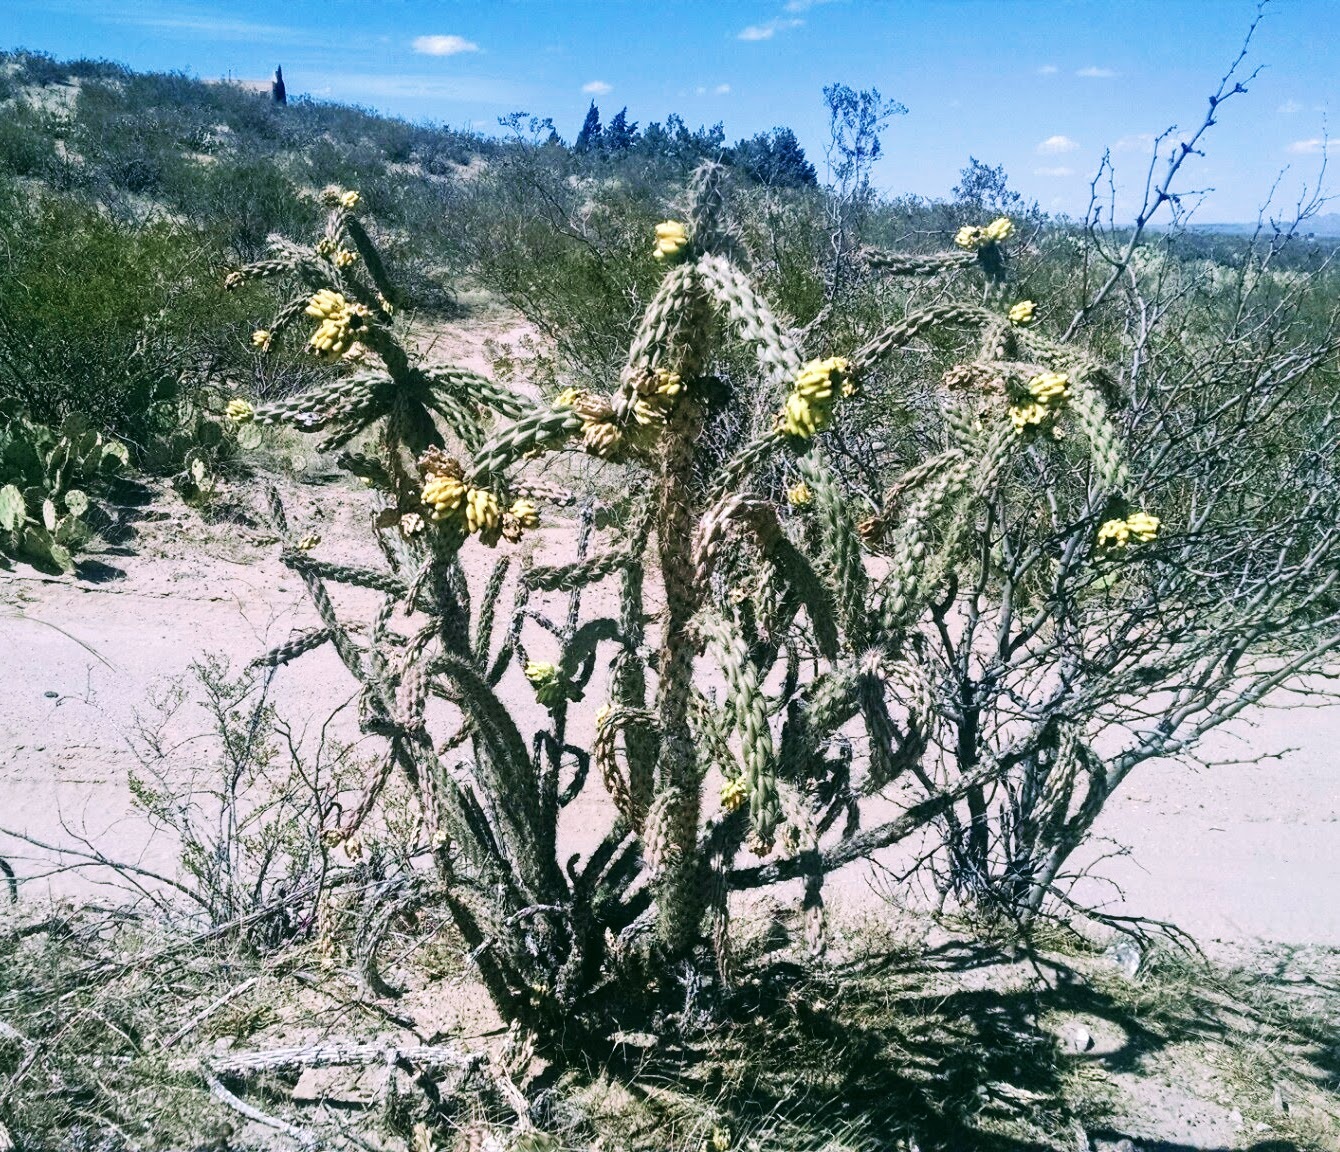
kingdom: Plantae
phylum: Tracheophyta
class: Magnoliopsida
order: Caryophyllales
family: Cactaceae
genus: Cylindropuntia
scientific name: Cylindropuntia imbricata
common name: Candelabrum cactus
